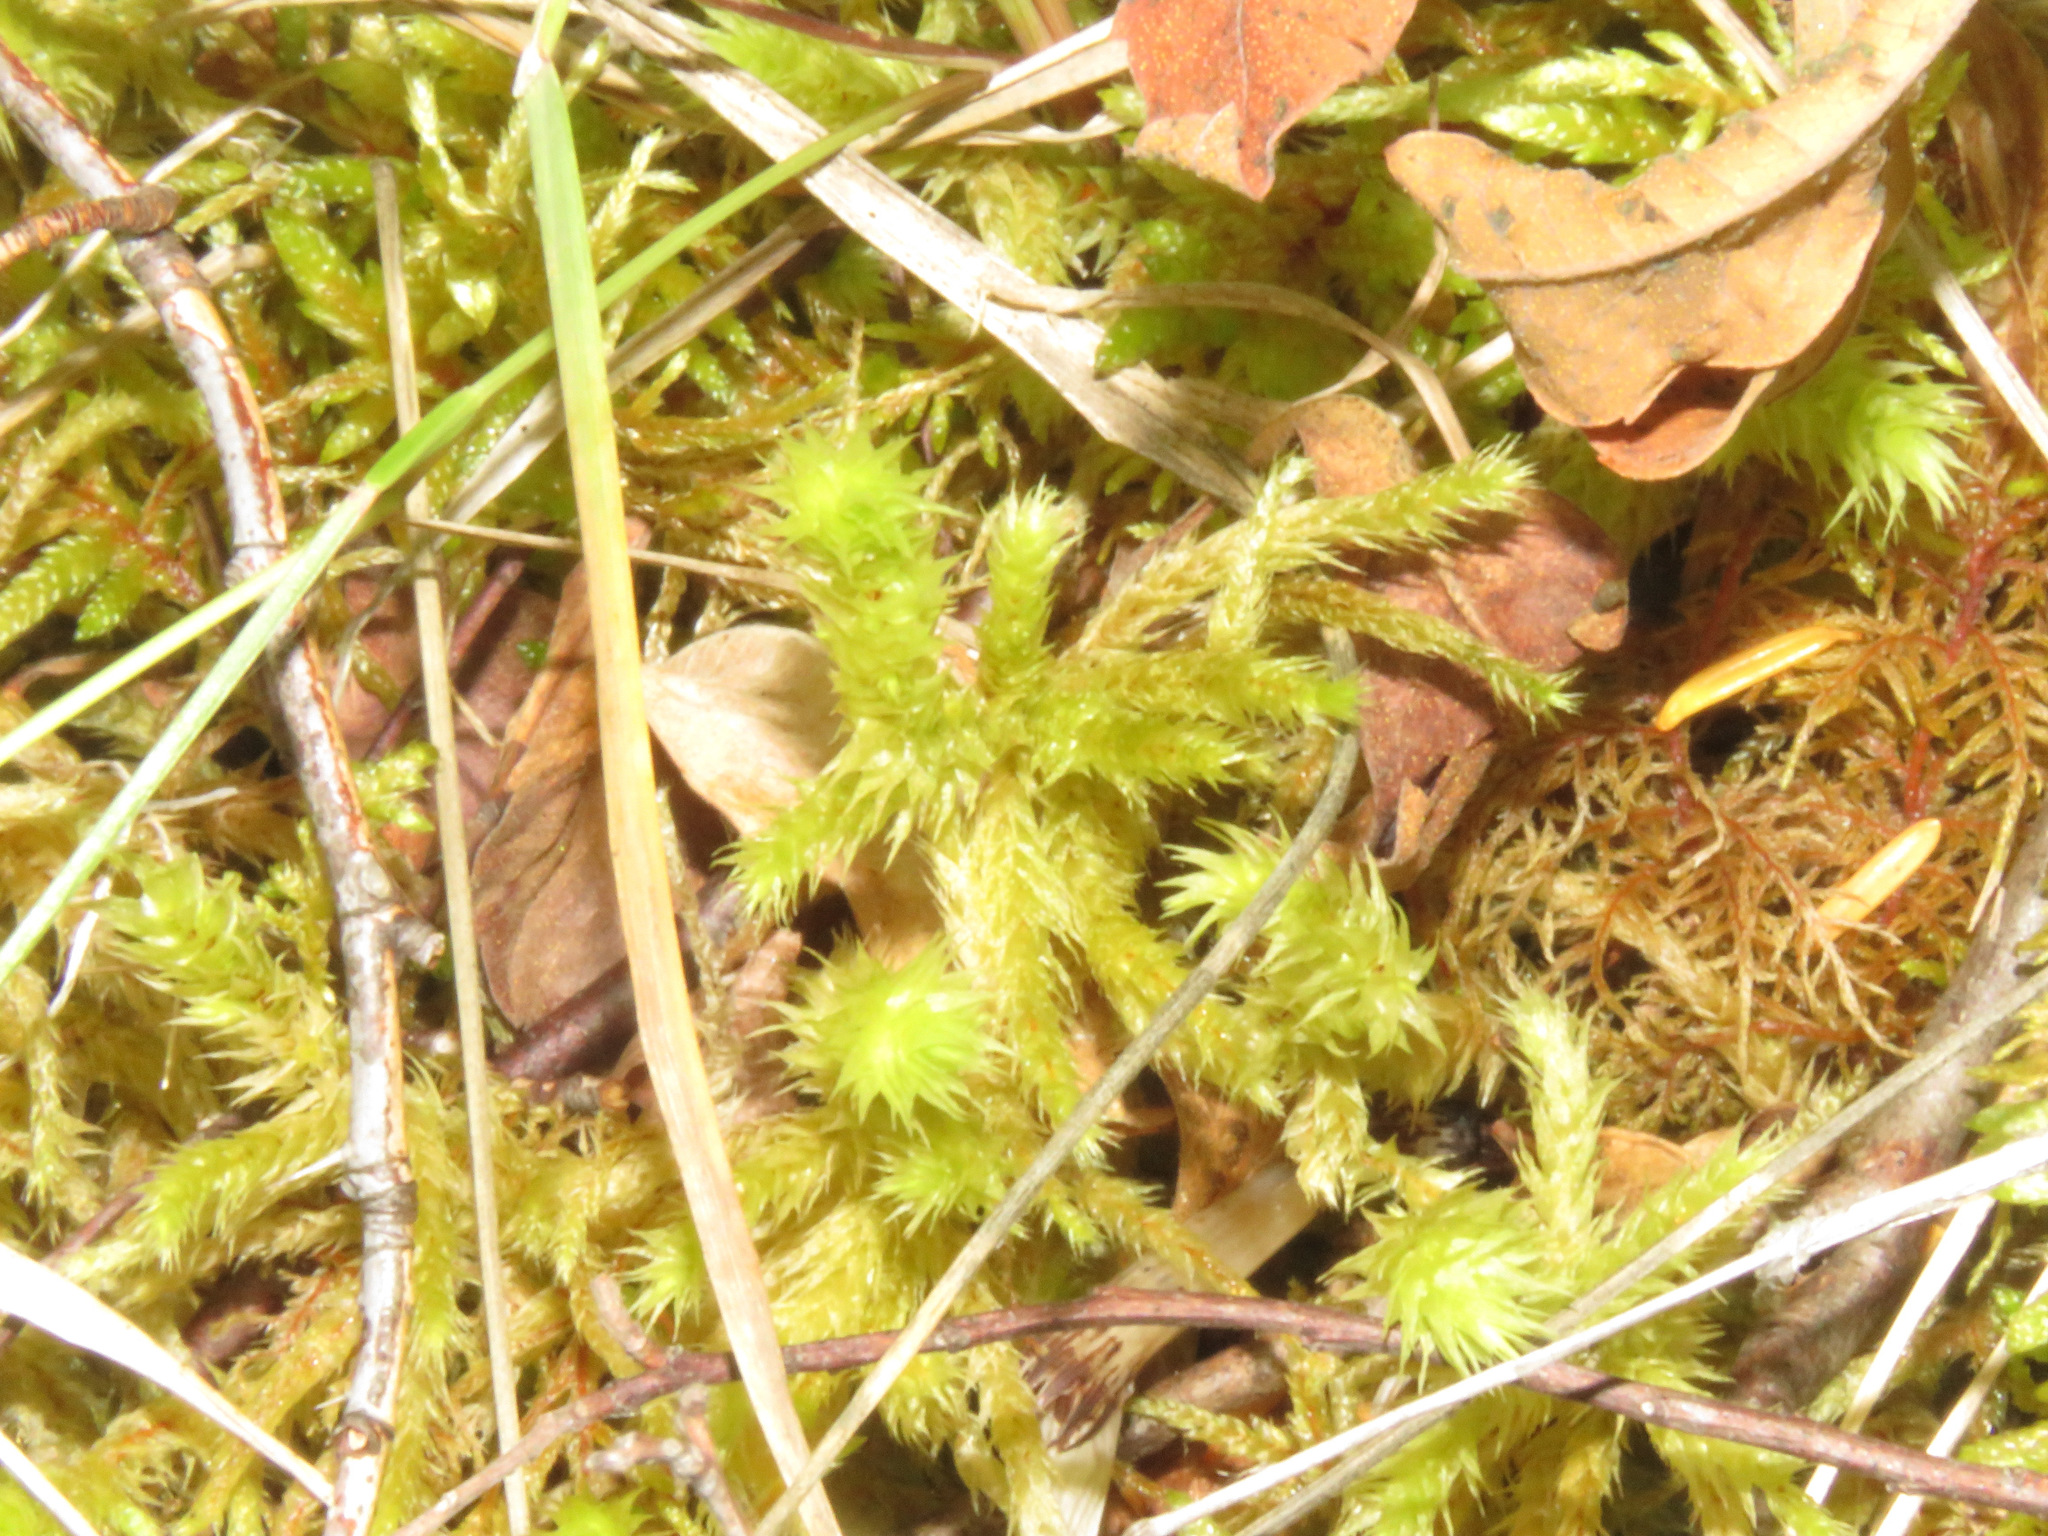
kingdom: Plantae
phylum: Bryophyta
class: Bryopsida
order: Hypnales
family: Hylocomiaceae
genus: Hylocomiadelphus
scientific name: Hylocomiadelphus triquetrus
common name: Rough goose neck moss
